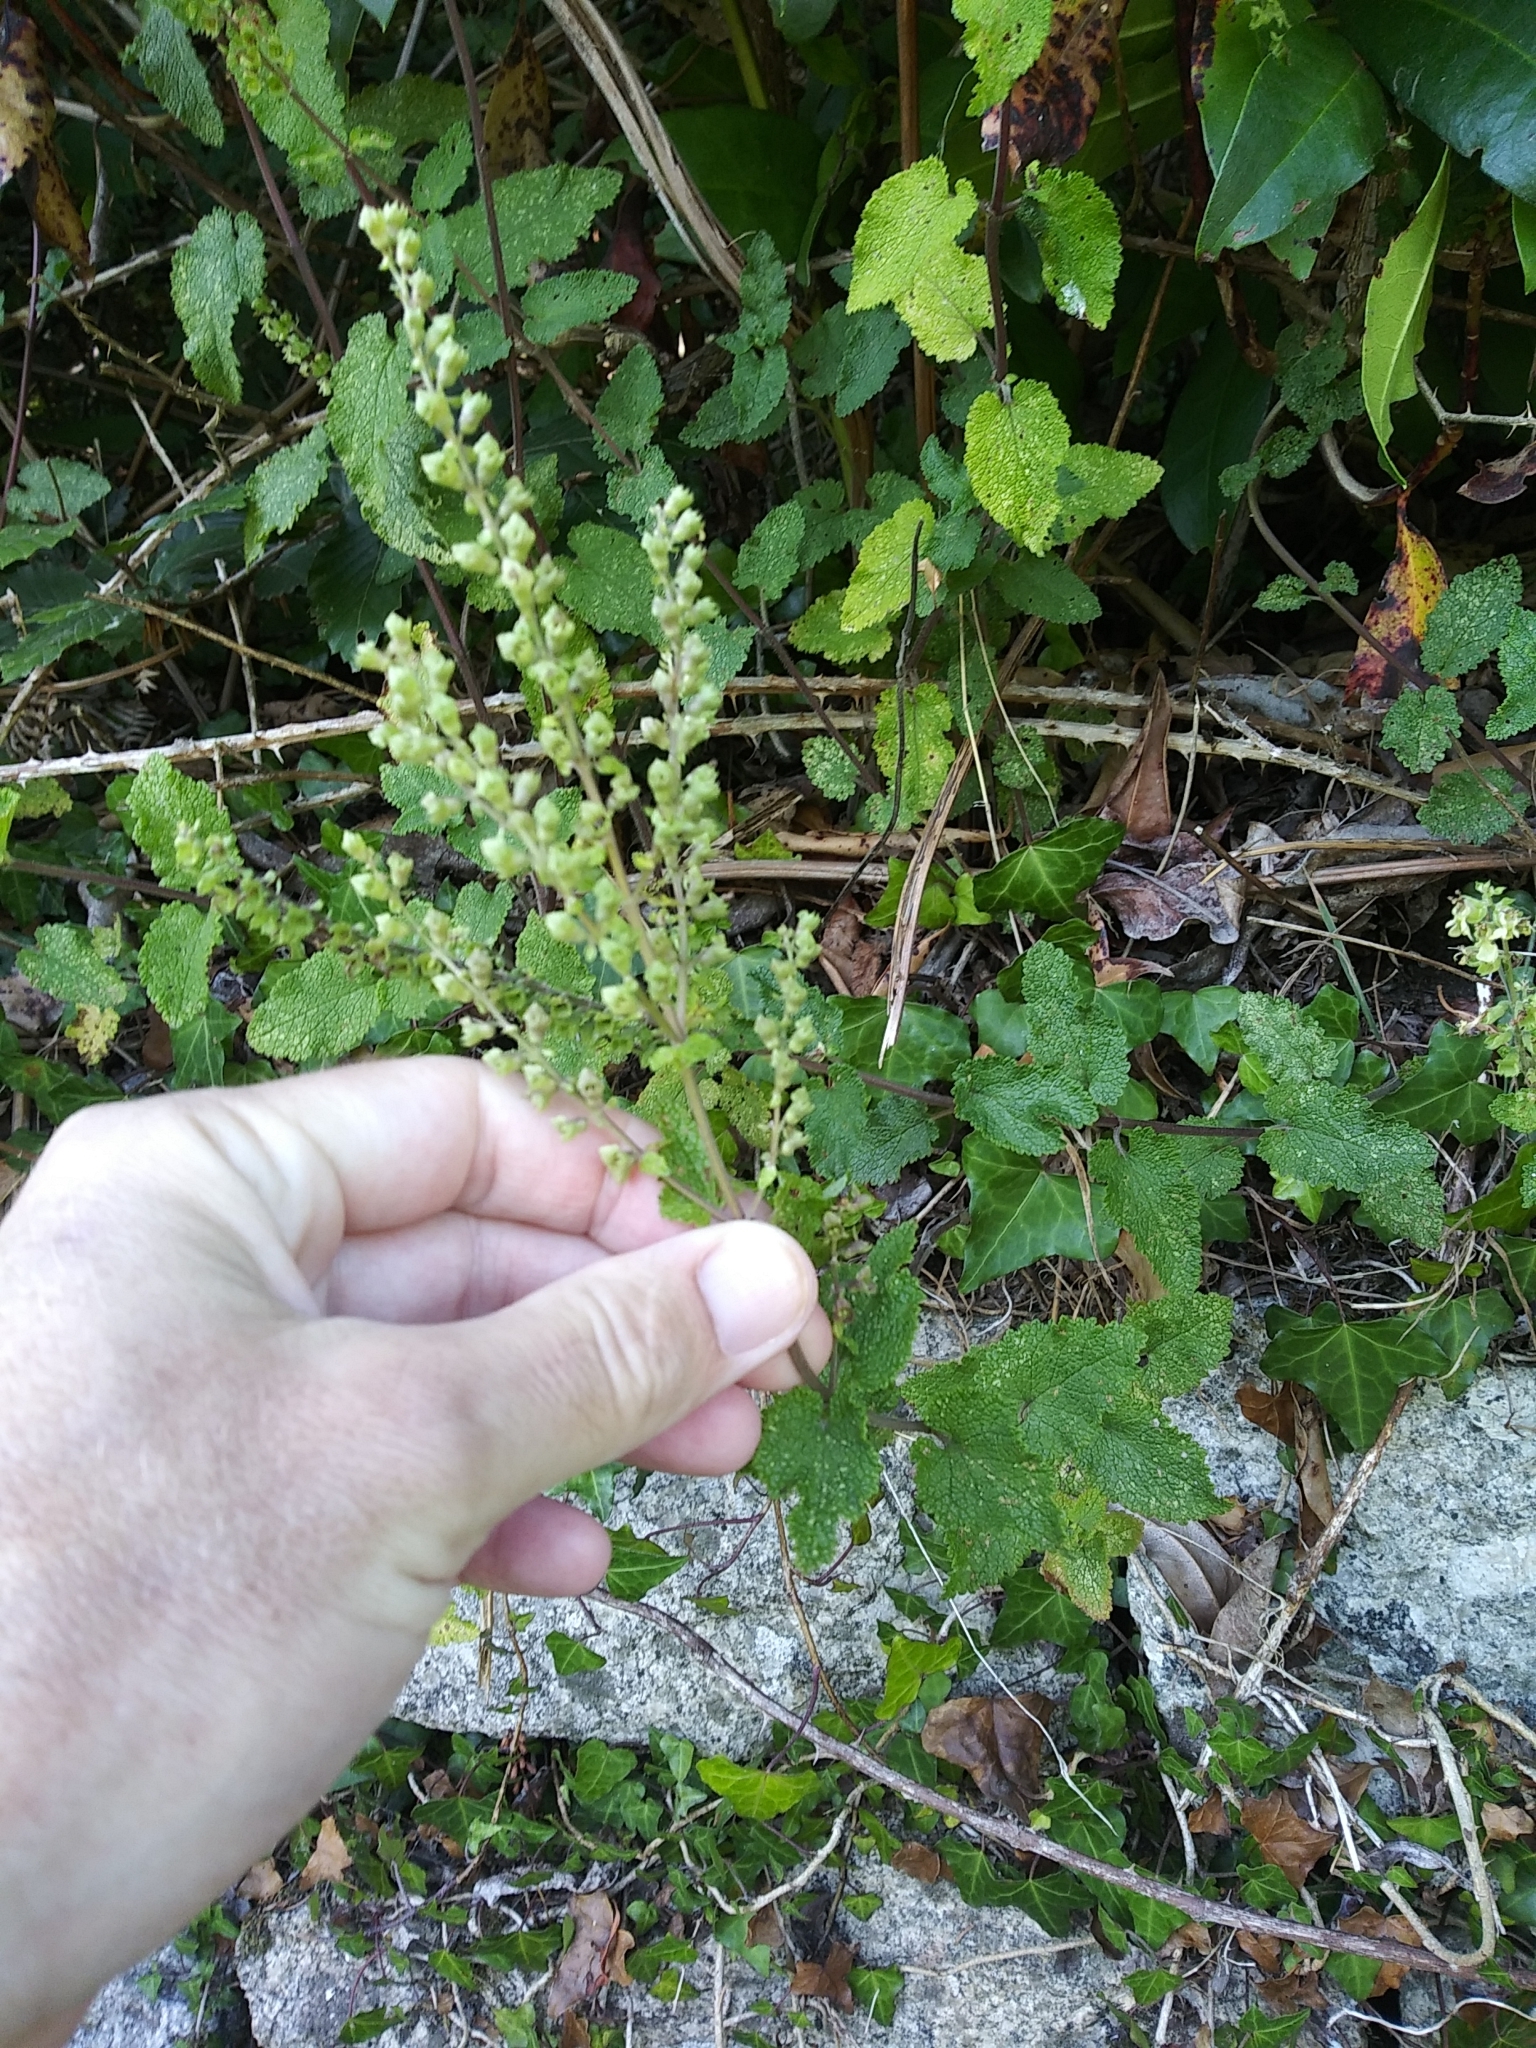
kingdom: Plantae
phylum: Tracheophyta
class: Magnoliopsida
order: Lamiales
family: Lamiaceae
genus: Teucrium
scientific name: Teucrium scorodonia
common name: Woodland germander
